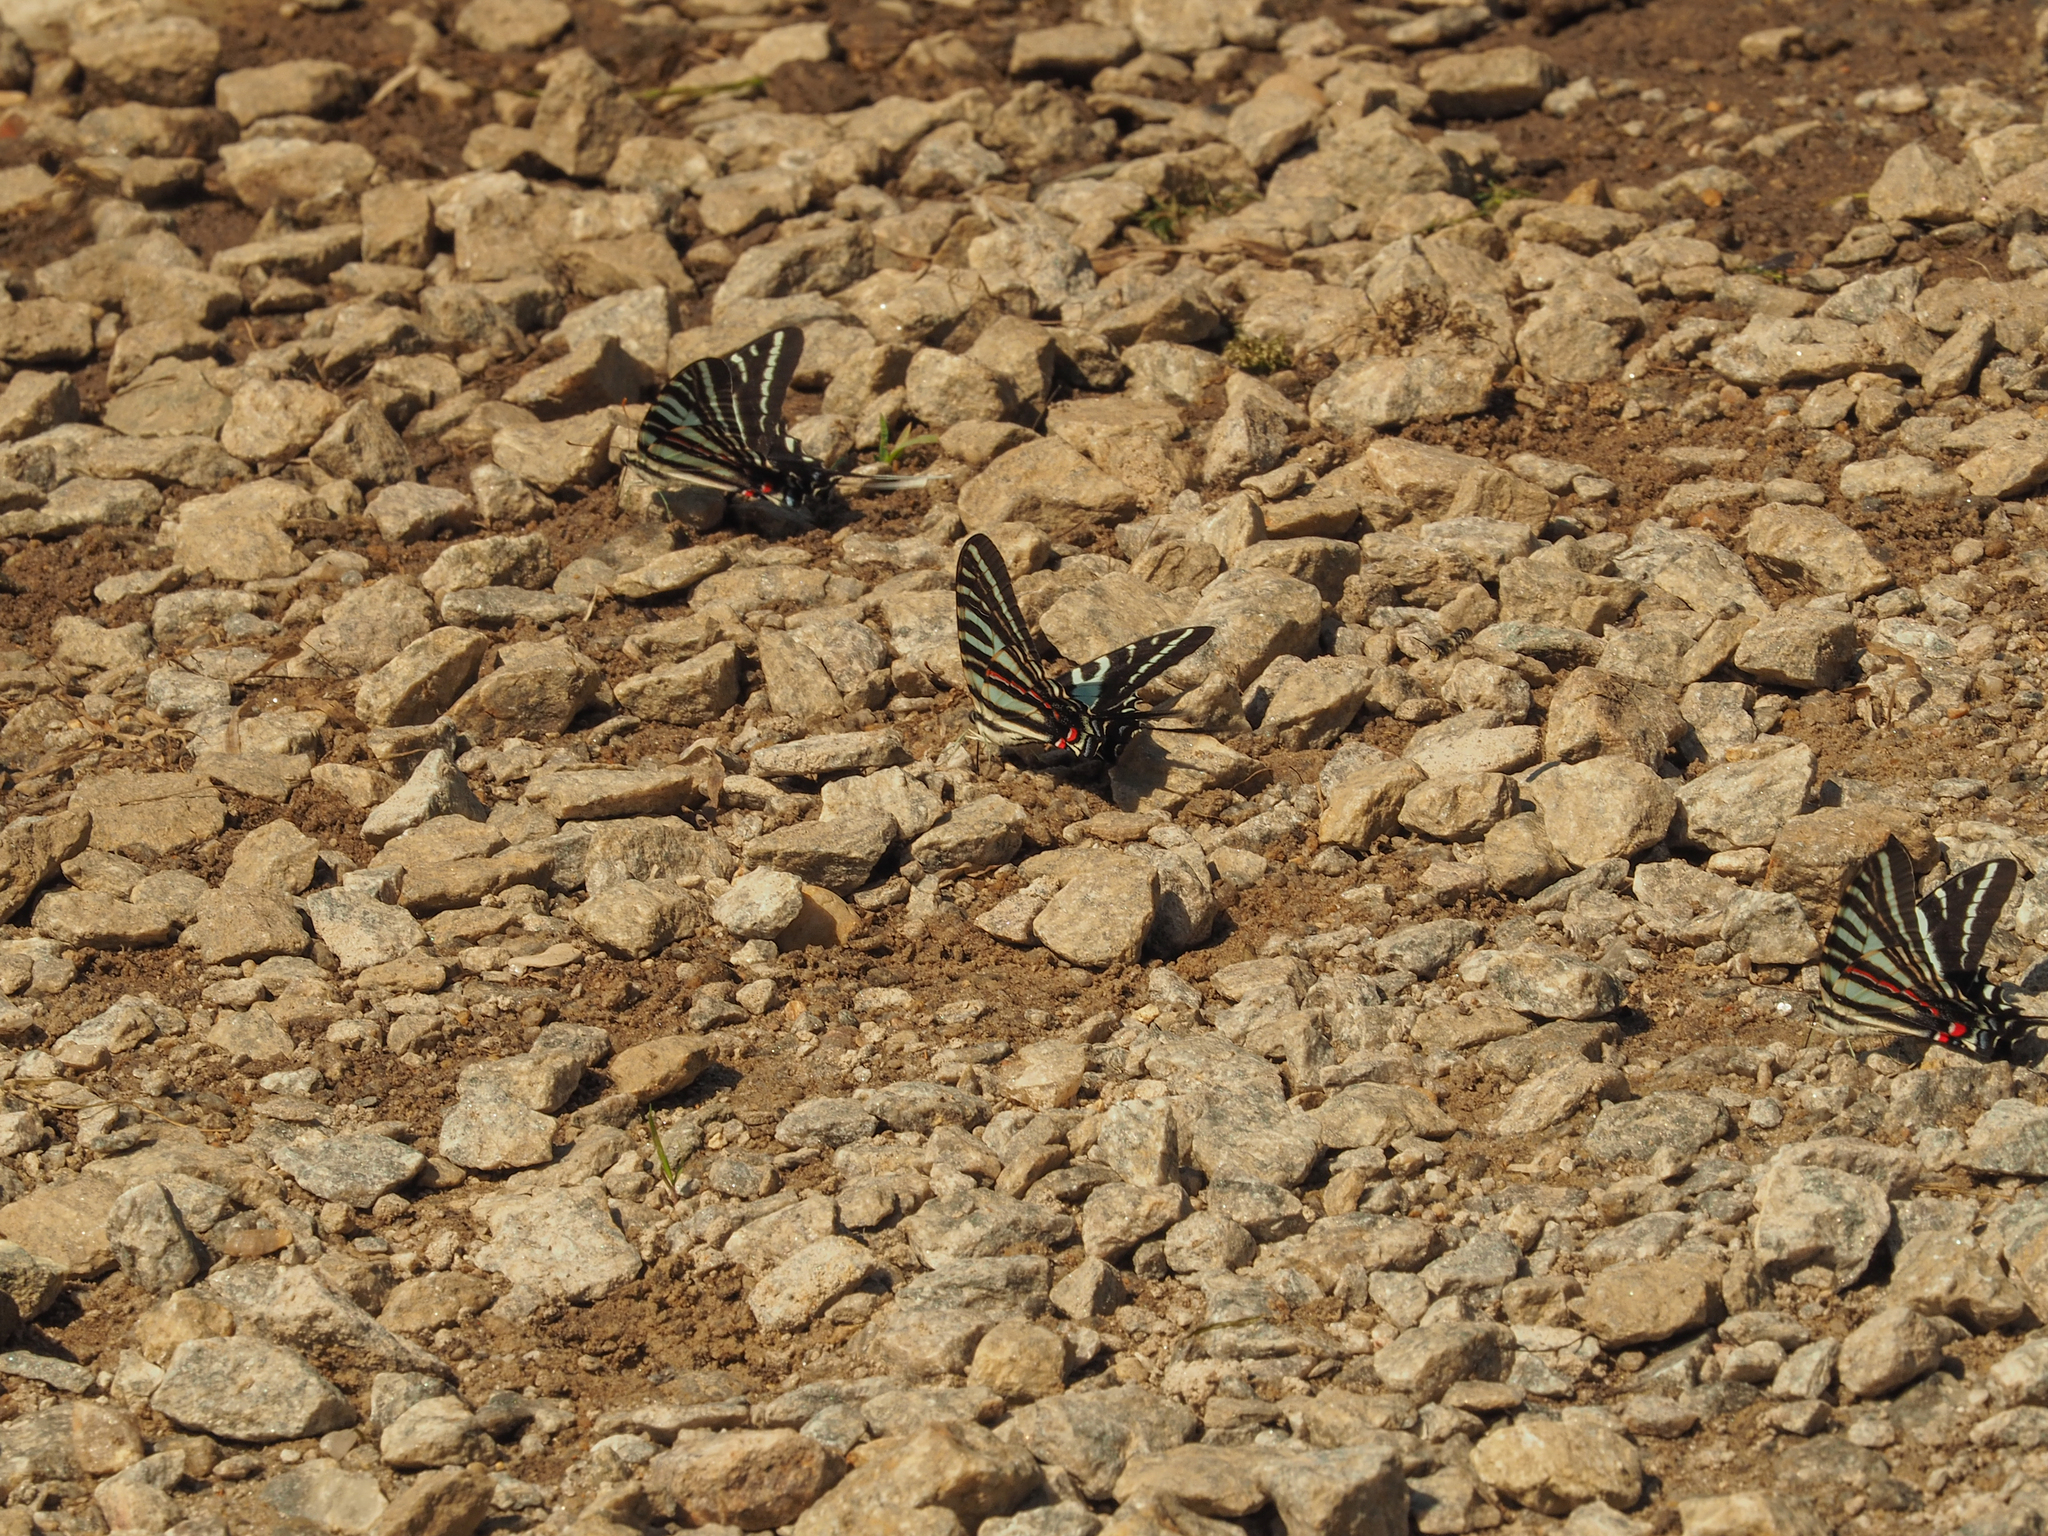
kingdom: Animalia
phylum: Arthropoda
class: Insecta
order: Lepidoptera
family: Papilionidae
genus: Protographium
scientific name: Protographium marcellus
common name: Zebra swallowtail
